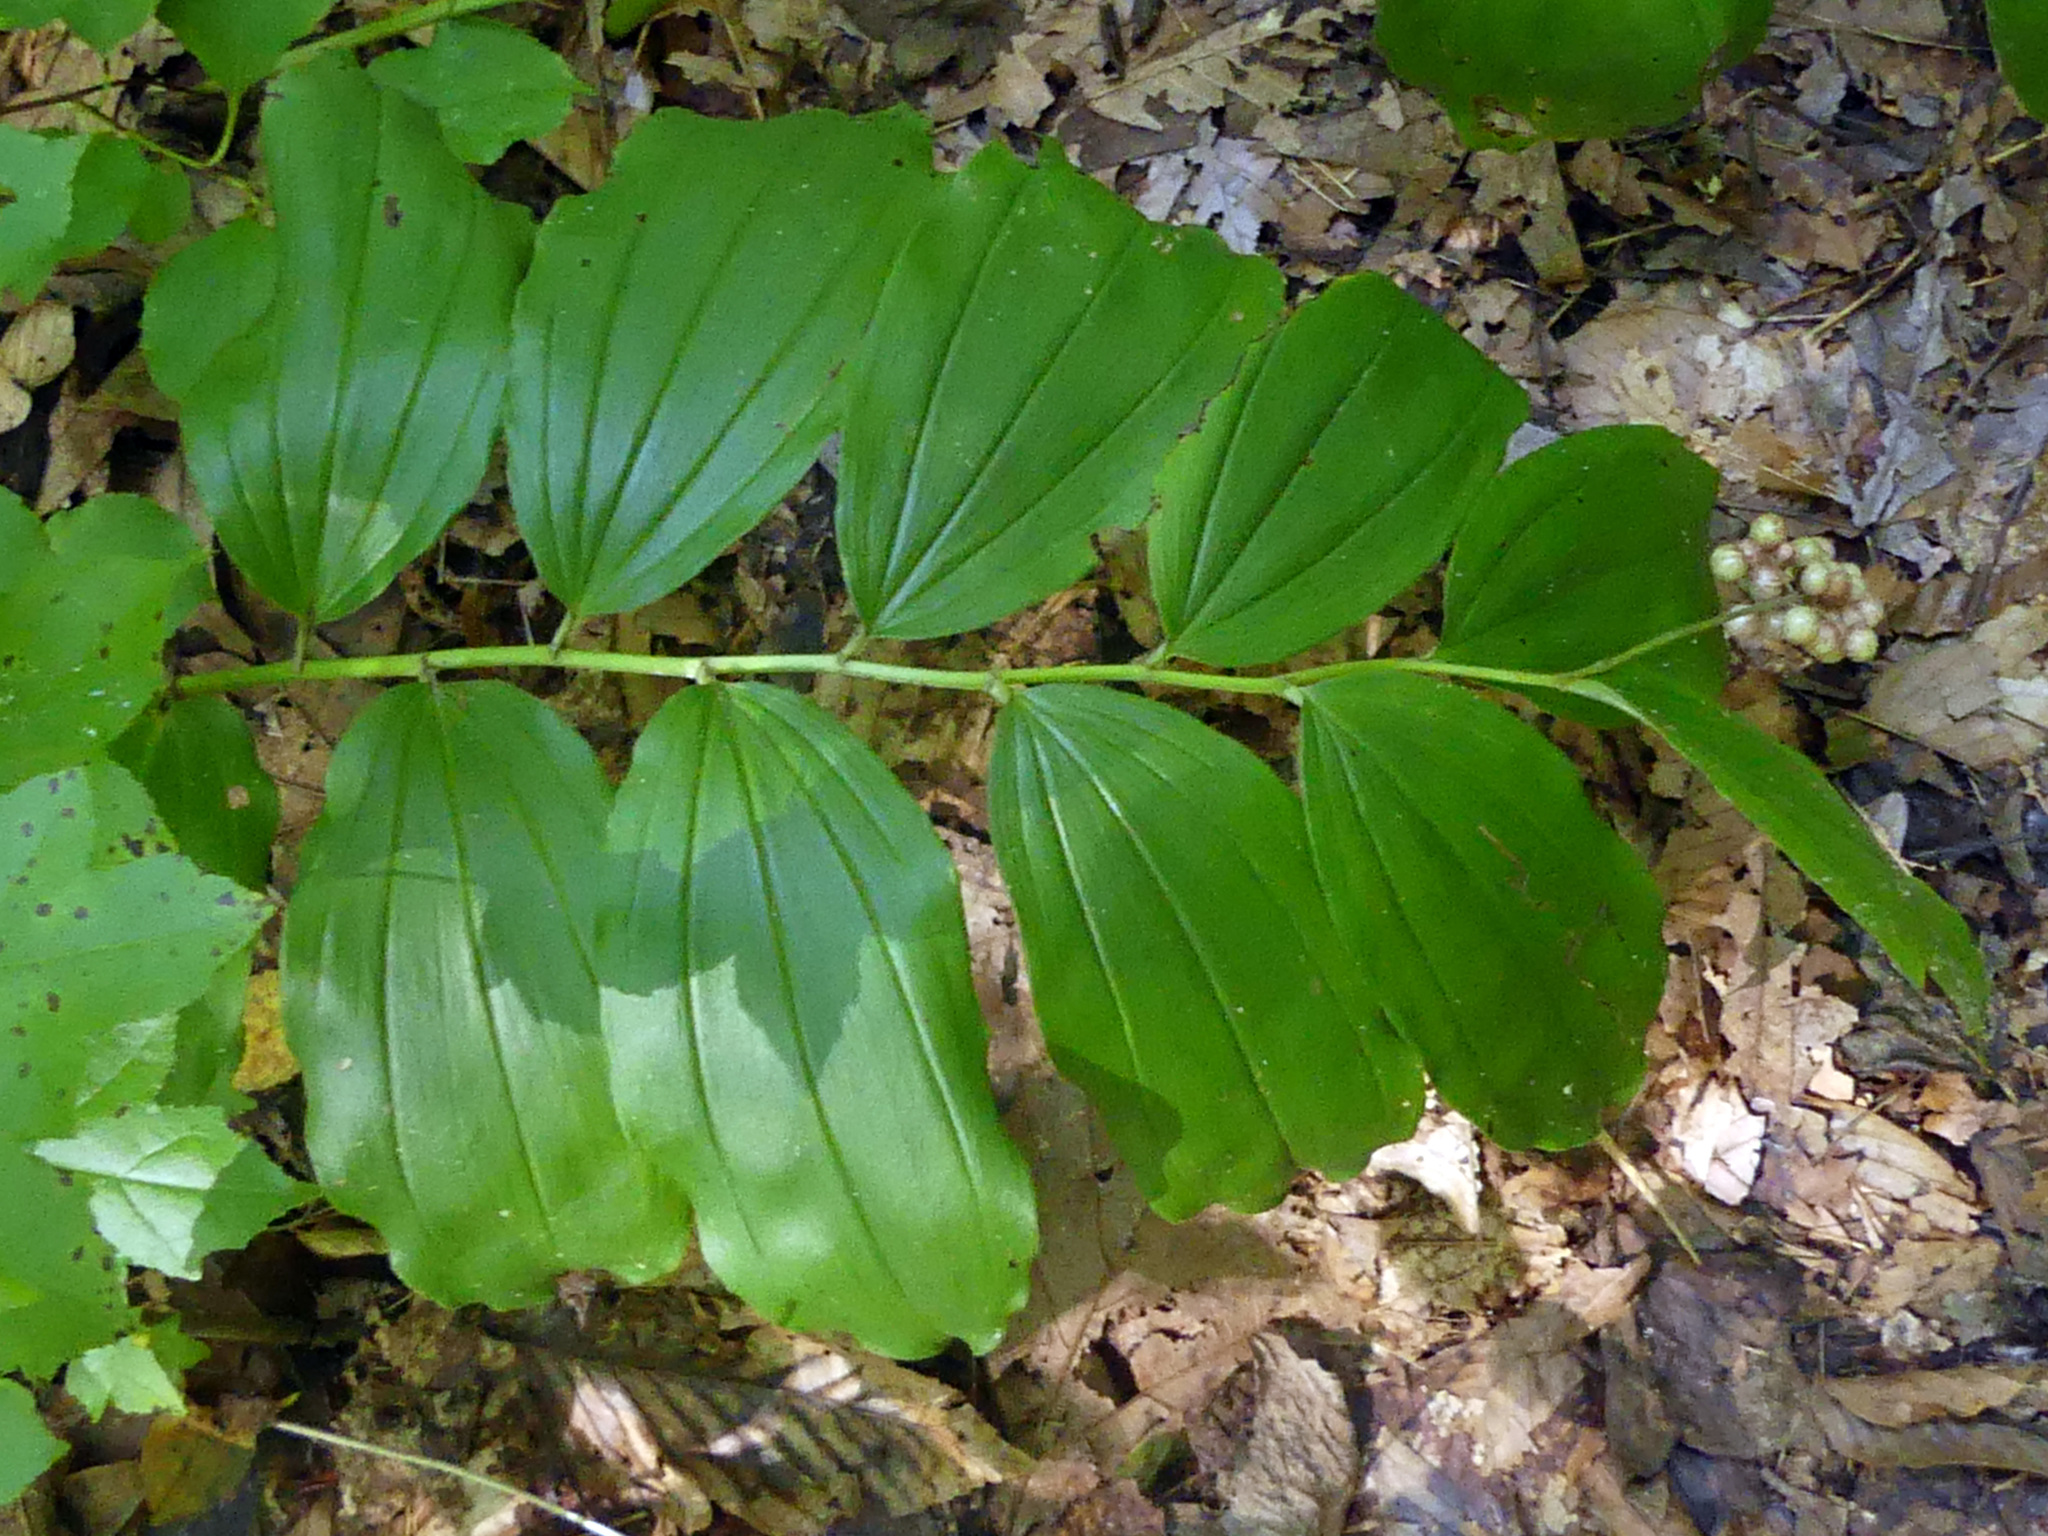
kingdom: Plantae
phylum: Tracheophyta
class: Liliopsida
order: Asparagales
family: Asparagaceae
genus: Maianthemum
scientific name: Maianthemum racemosum
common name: False spikenard
